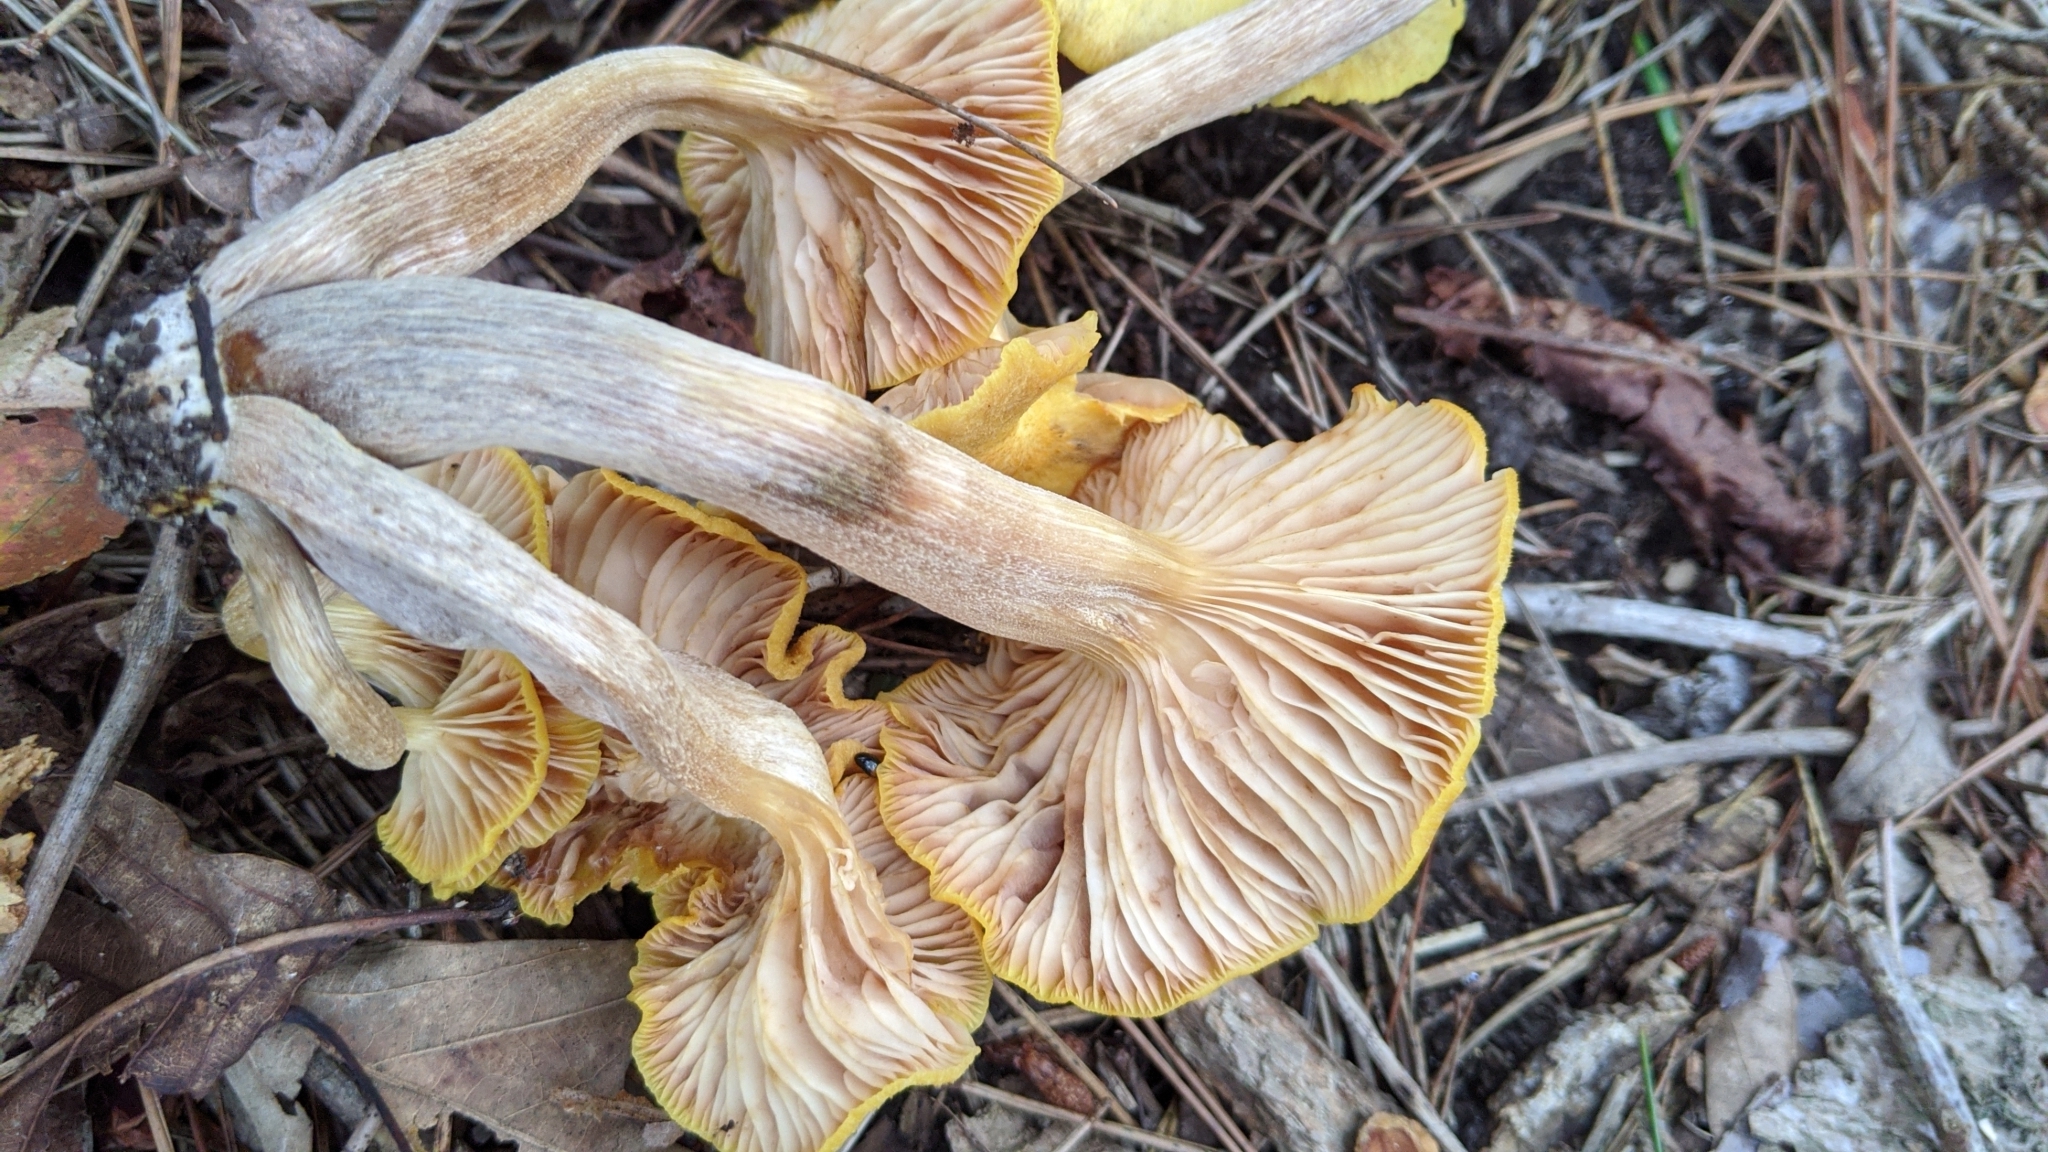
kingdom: Fungi
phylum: Basidiomycota
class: Agaricomycetes
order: Agaricales
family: Physalacriaceae
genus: Desarmillaria
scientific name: Desarmillaria caespitosa
